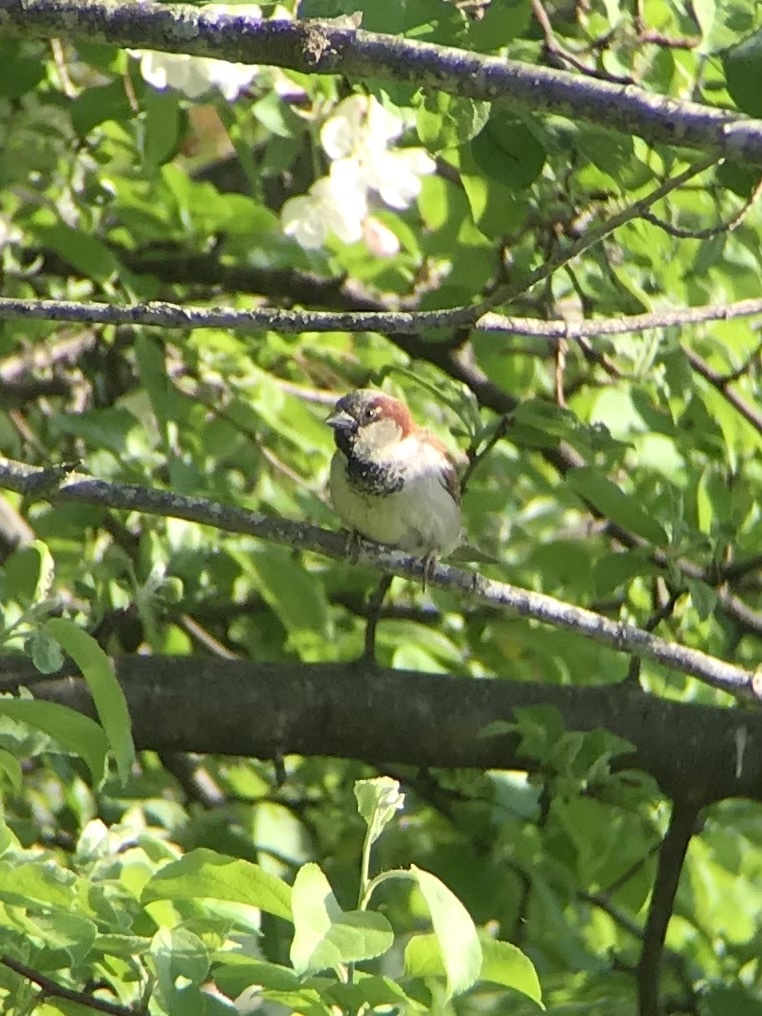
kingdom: Animalia
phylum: Chordata
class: Aves
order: Passeriformes
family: Passeridae
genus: Passer
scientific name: Passer domesticus
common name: House sparrow
